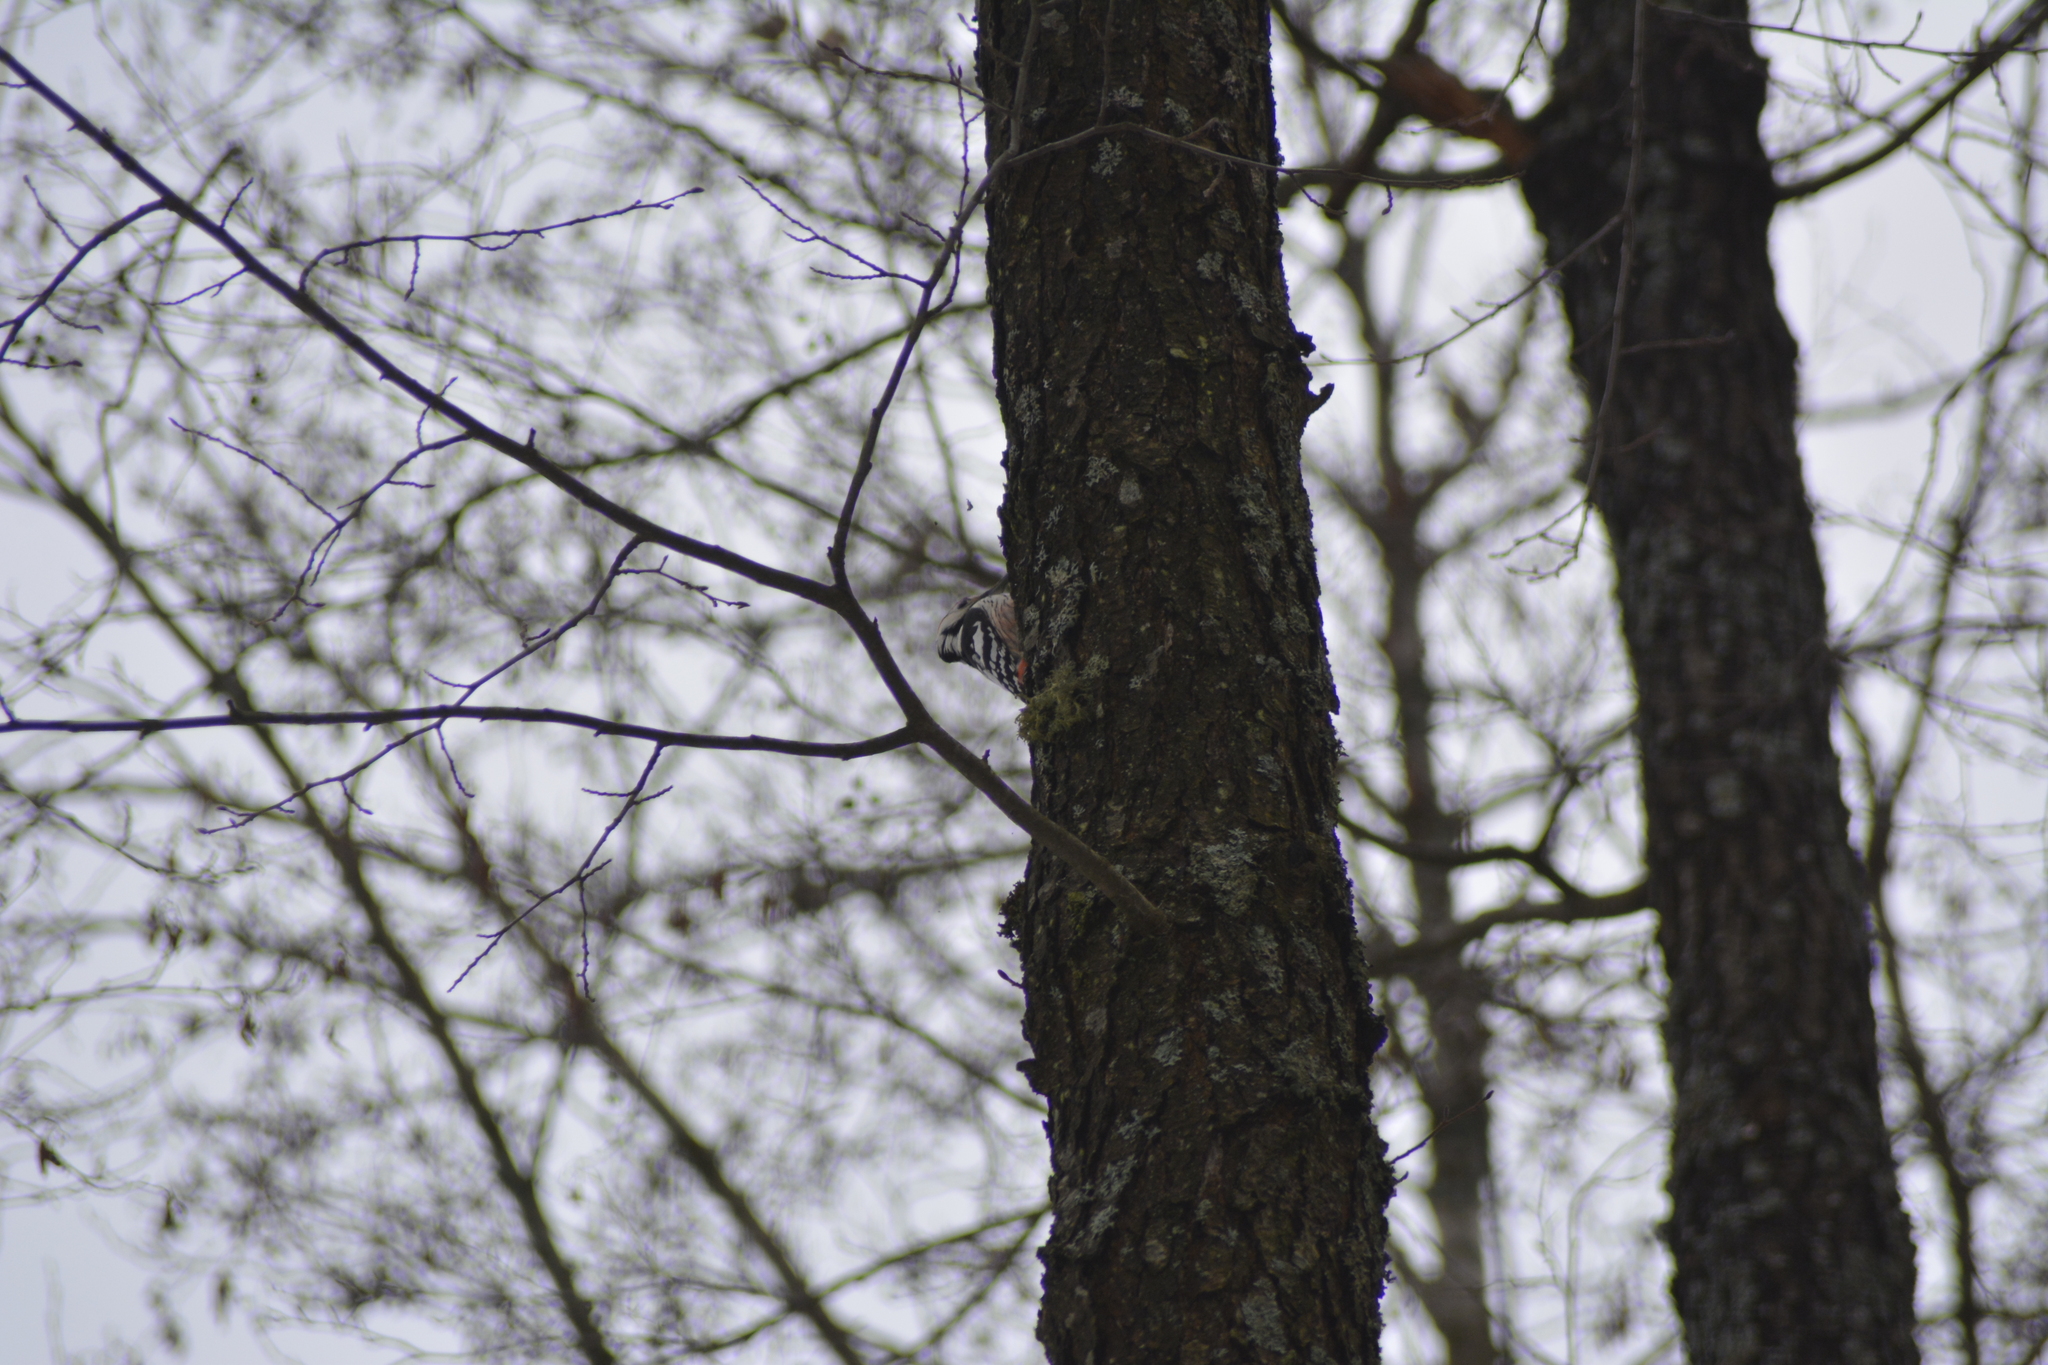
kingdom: Animalia
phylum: Chordata
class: Aves
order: Piciformes
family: Picidae
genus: Dendrocopos
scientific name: Dendrocopos leucotos
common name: White-backed woodpecker
